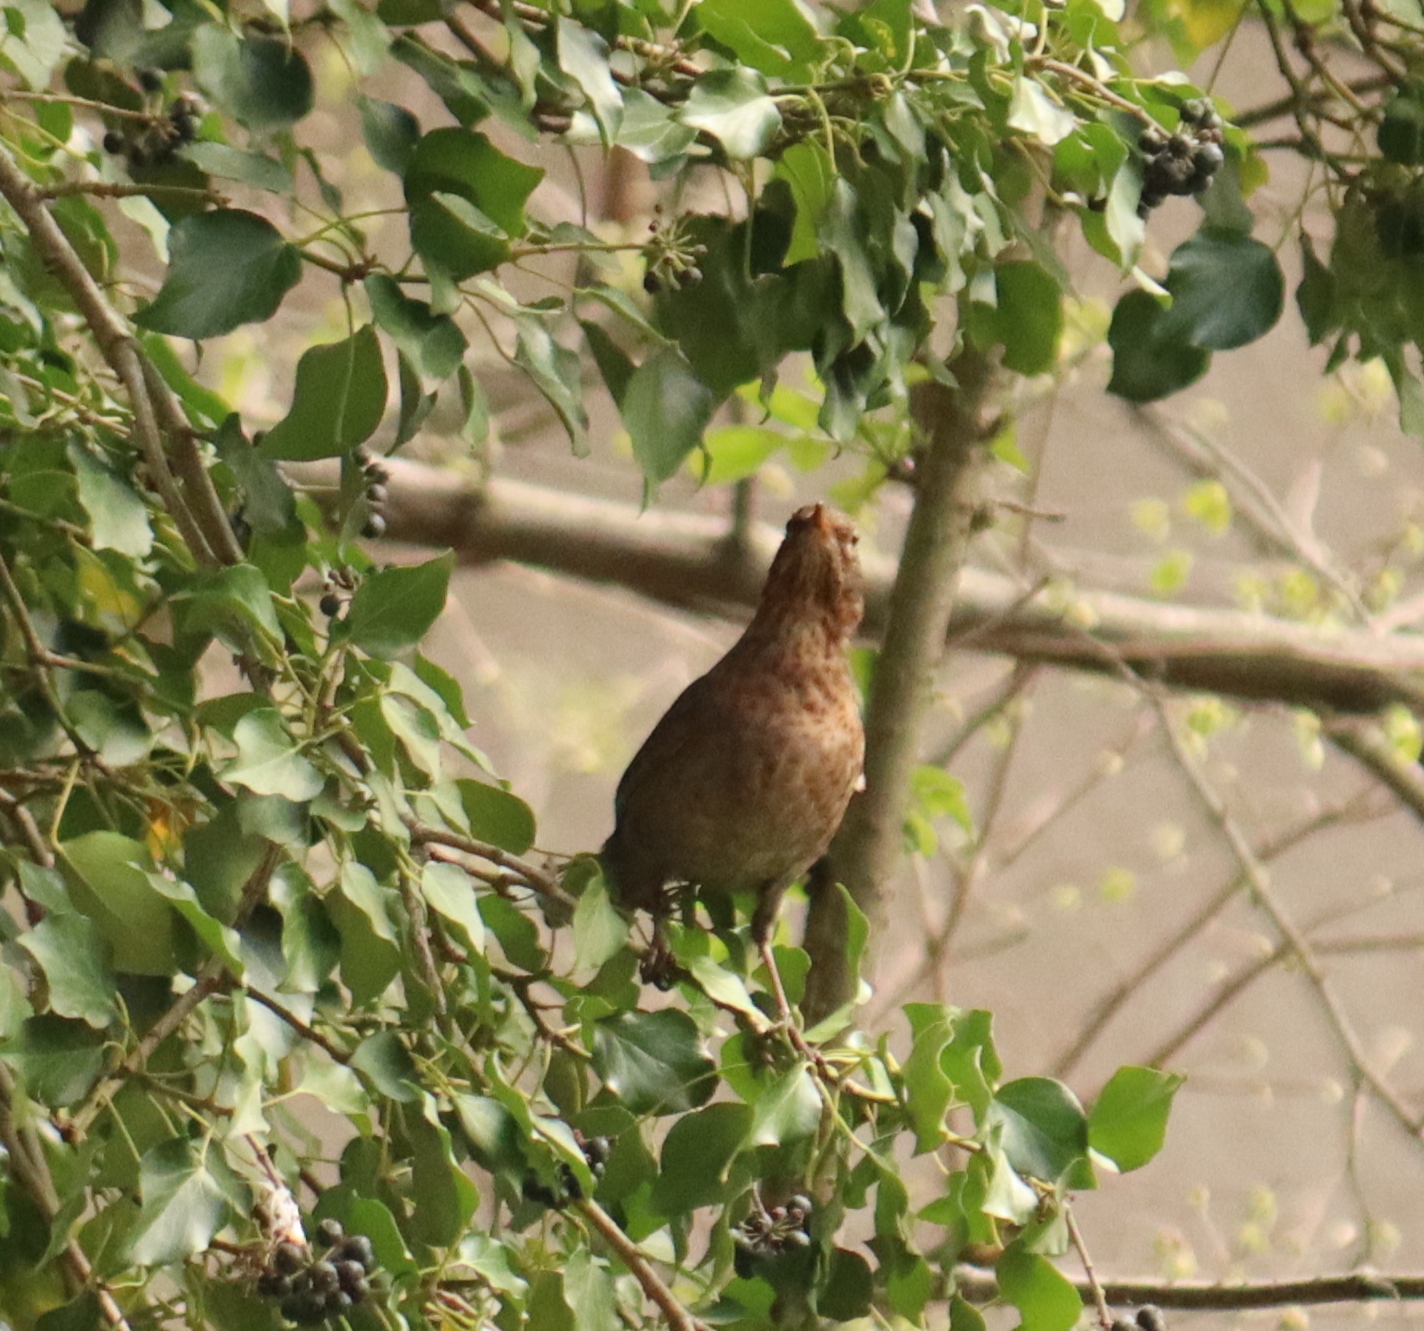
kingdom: Animalia
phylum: Chordata
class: Aves
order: Passeriformes
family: Turdidae
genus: Turdus
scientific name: Turdus merula
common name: Common blackbird
